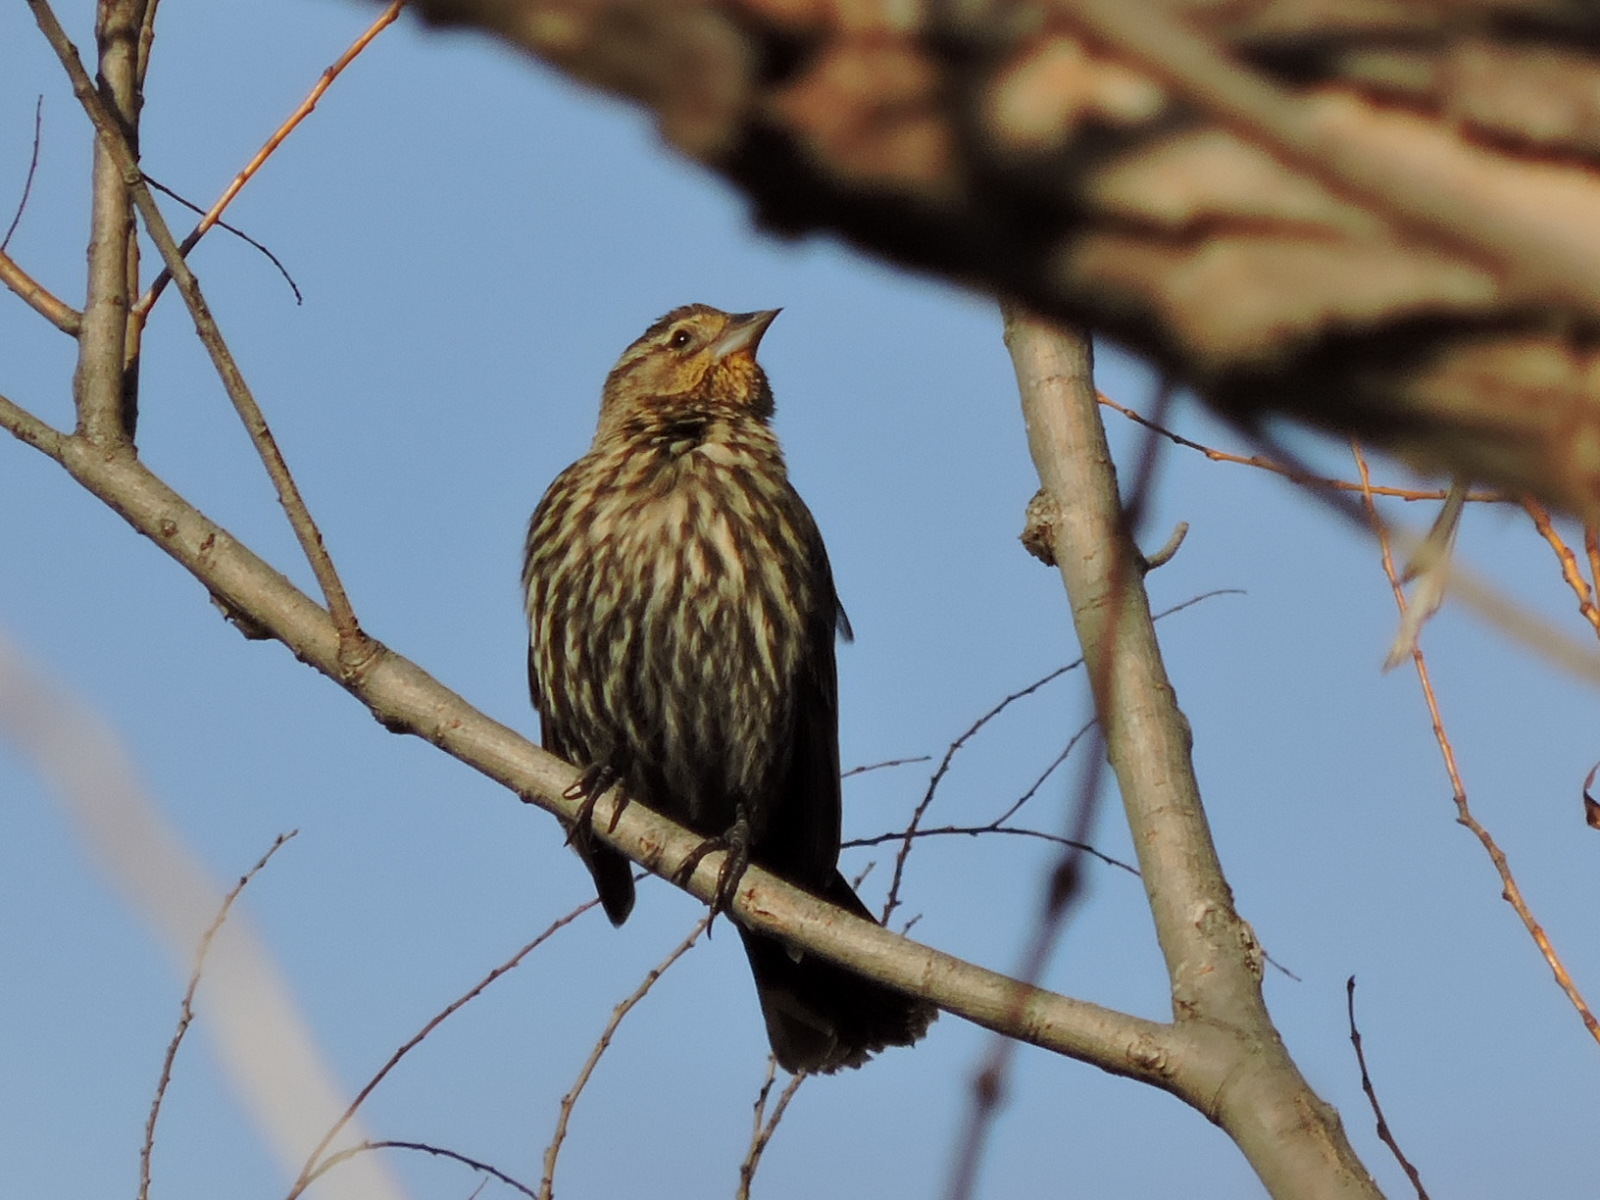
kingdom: Animalia
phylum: Chordata
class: Aves
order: Passeriformes
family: Icteridae
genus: Agelaius
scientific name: Agelaius phoeniceus
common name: Red-winged blackbird
